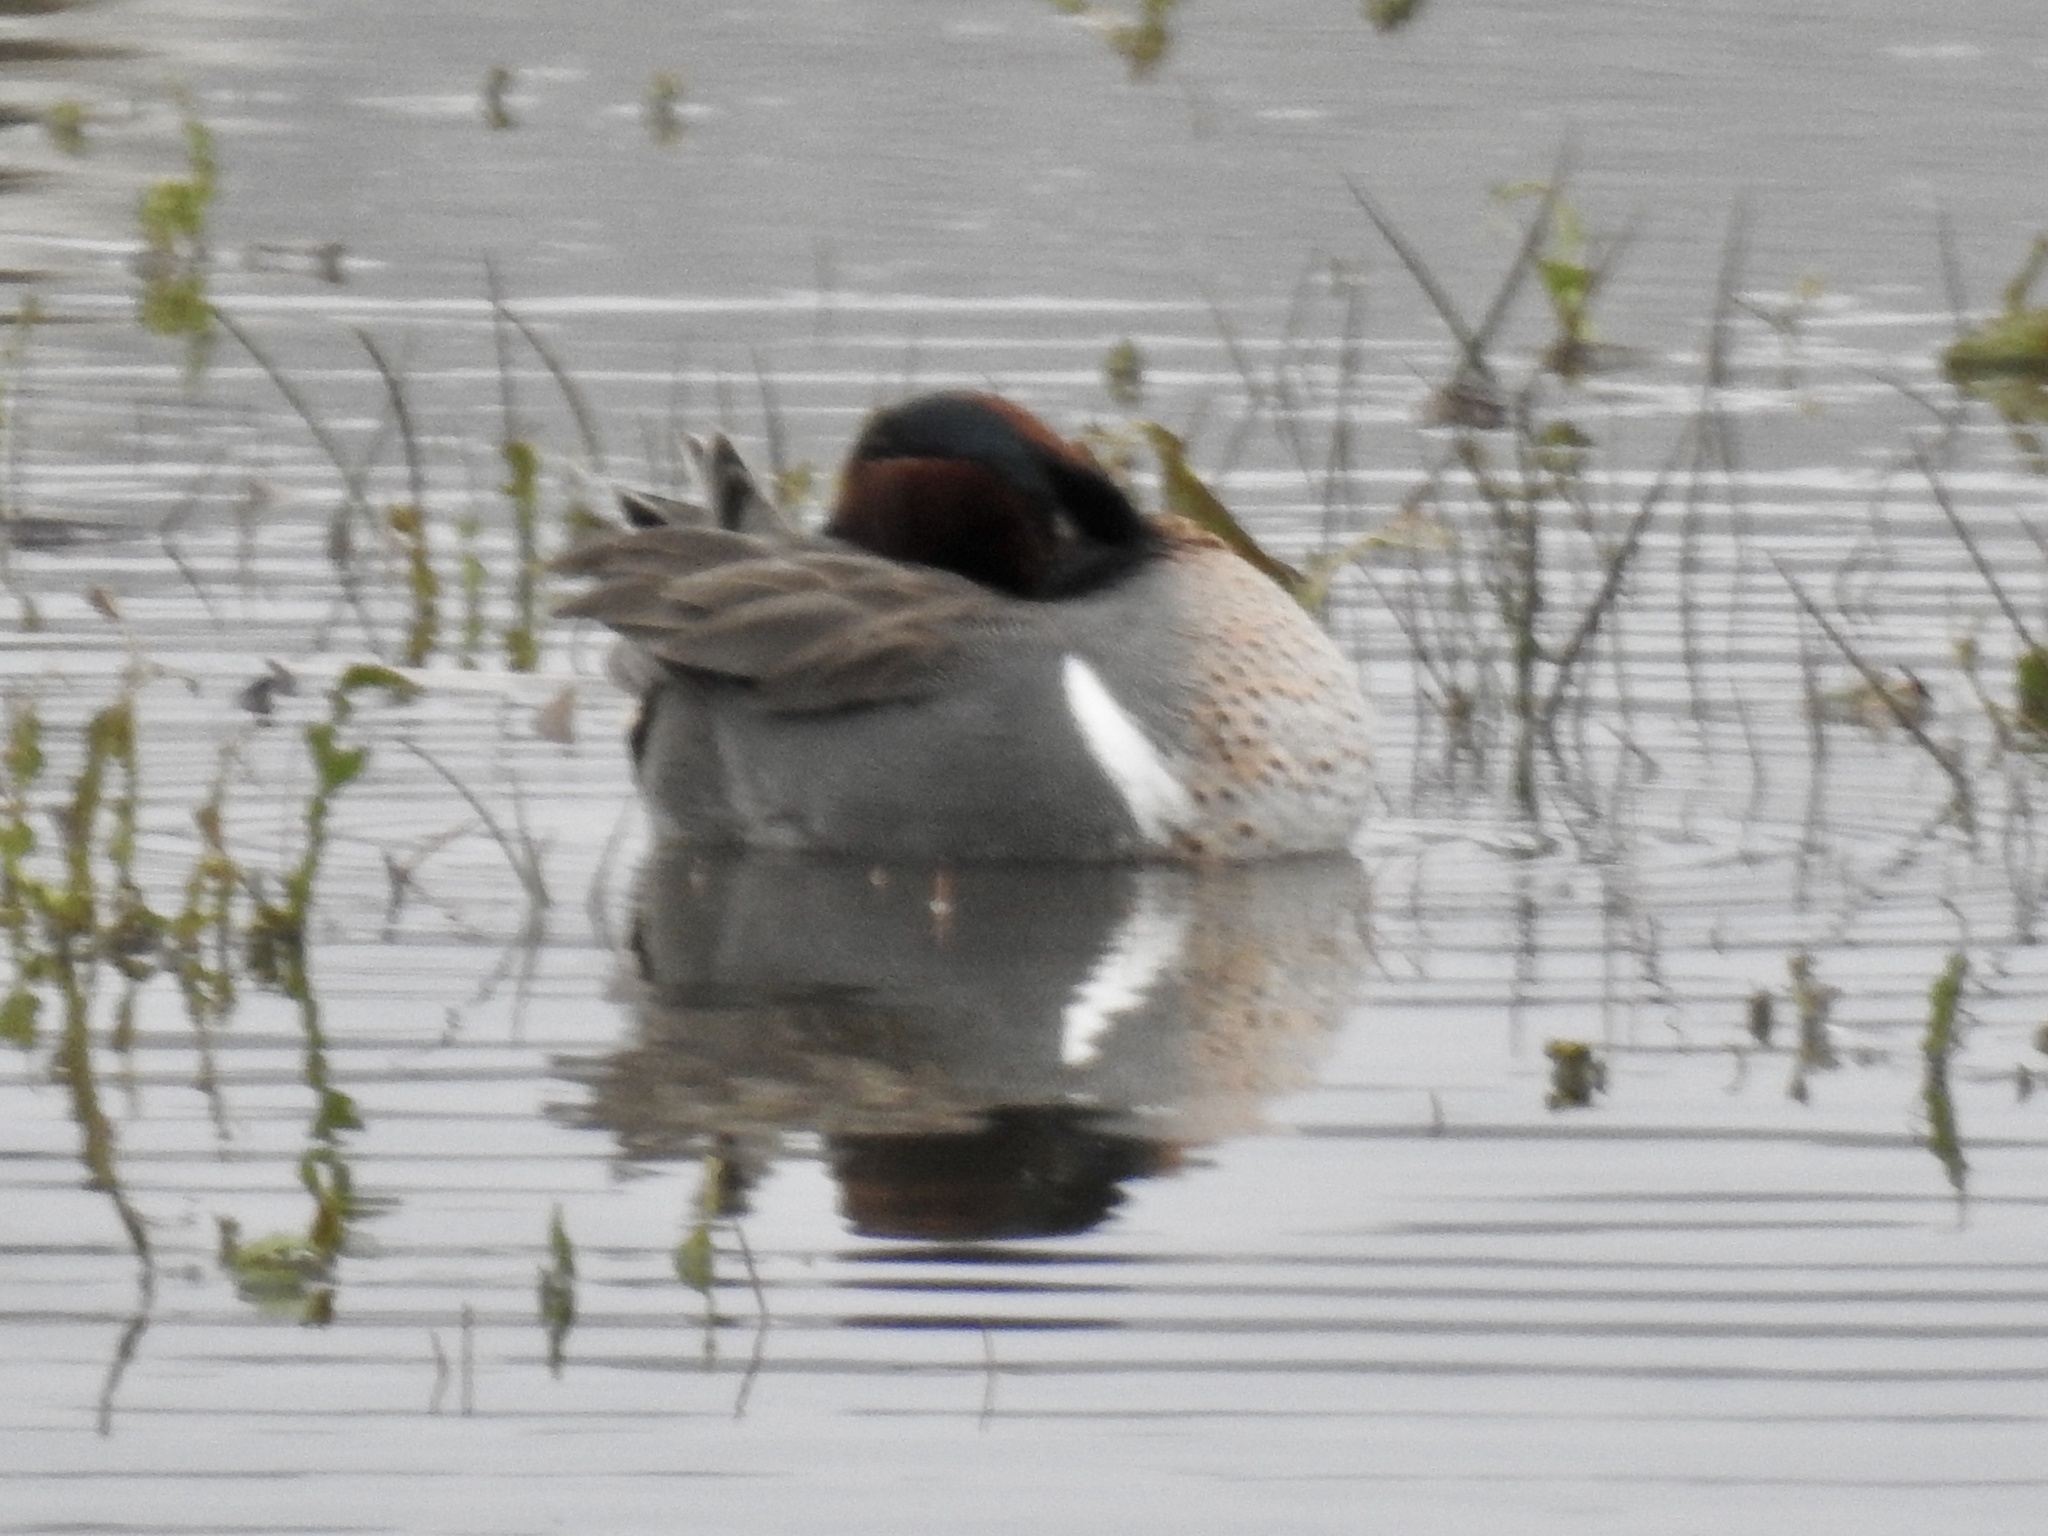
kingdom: Animalia
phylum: Chordata
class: Aves
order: Anseriformes
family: Anatidae
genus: Anas
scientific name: Anas crecca
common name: Eurasian teal
